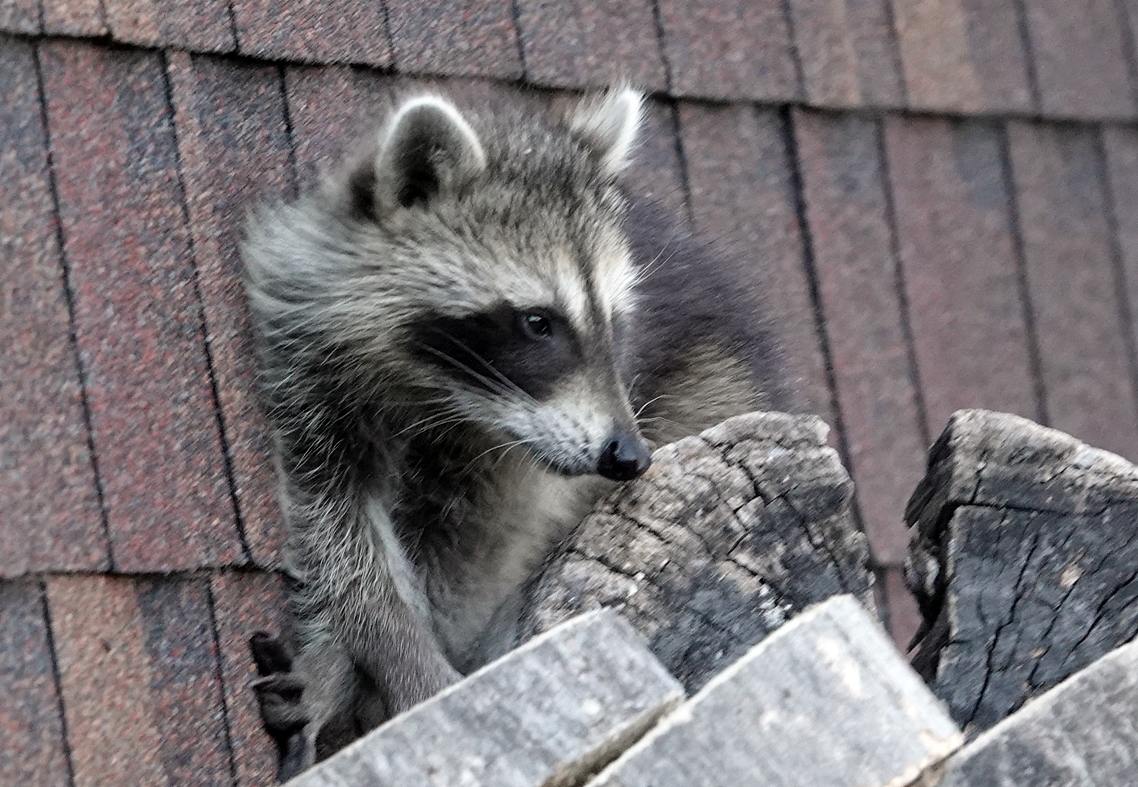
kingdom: Animalia
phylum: Chordata
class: Mammalia
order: Carnivora
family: Procyonidae
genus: Procyon
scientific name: Procyon lotor
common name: Raccoon
